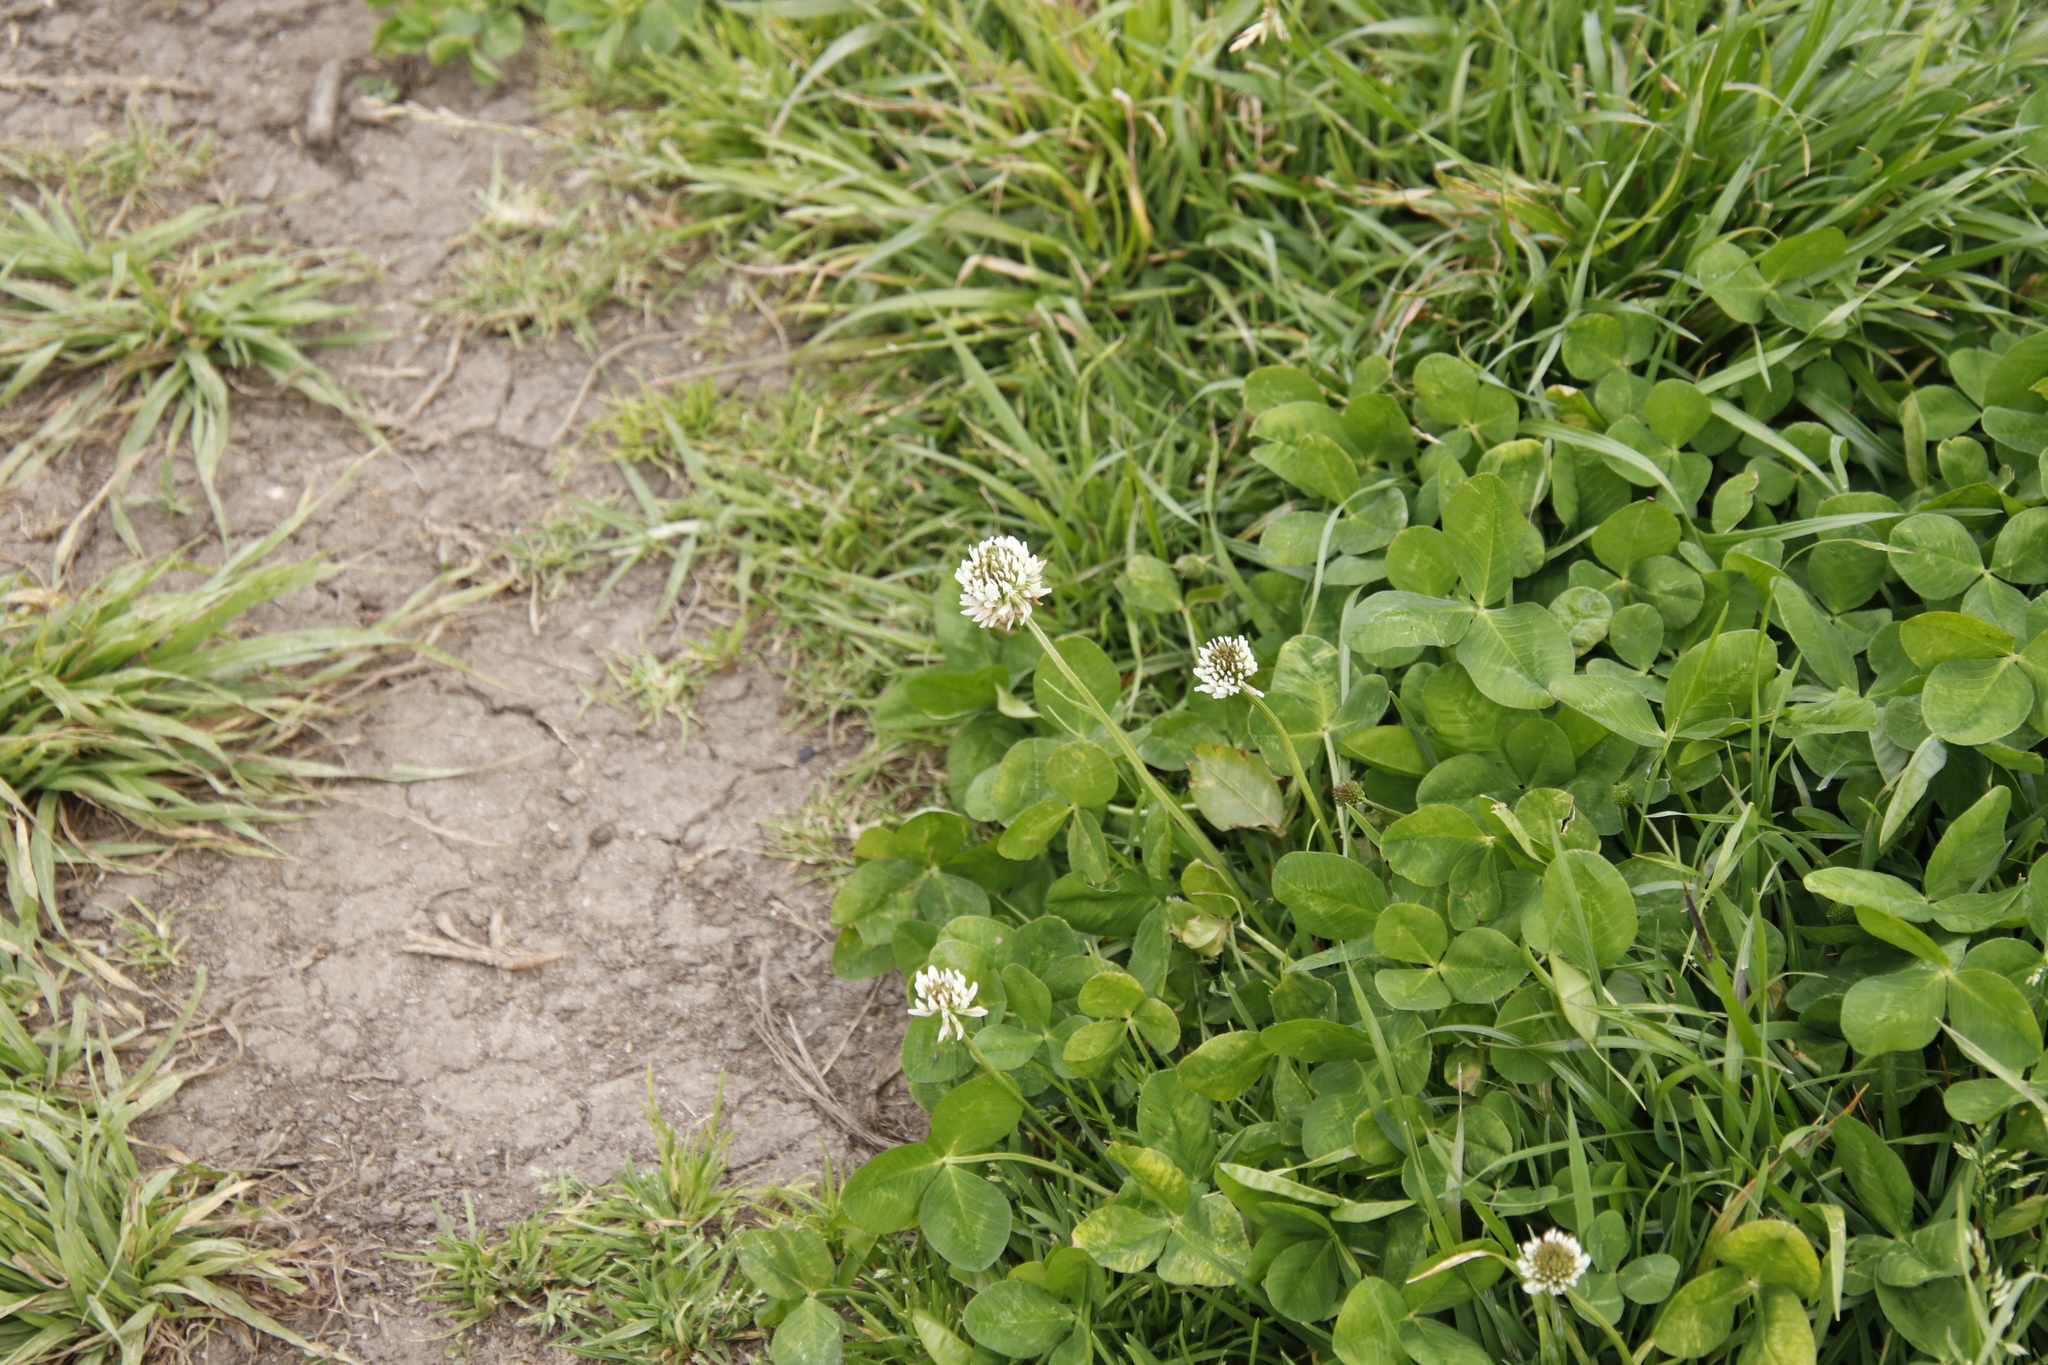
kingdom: Plantae
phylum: Tracheophyta
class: Magnoliopsida
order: Fabales
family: Fabaceae
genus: Trifolium
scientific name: Trifolium repens
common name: White clover
